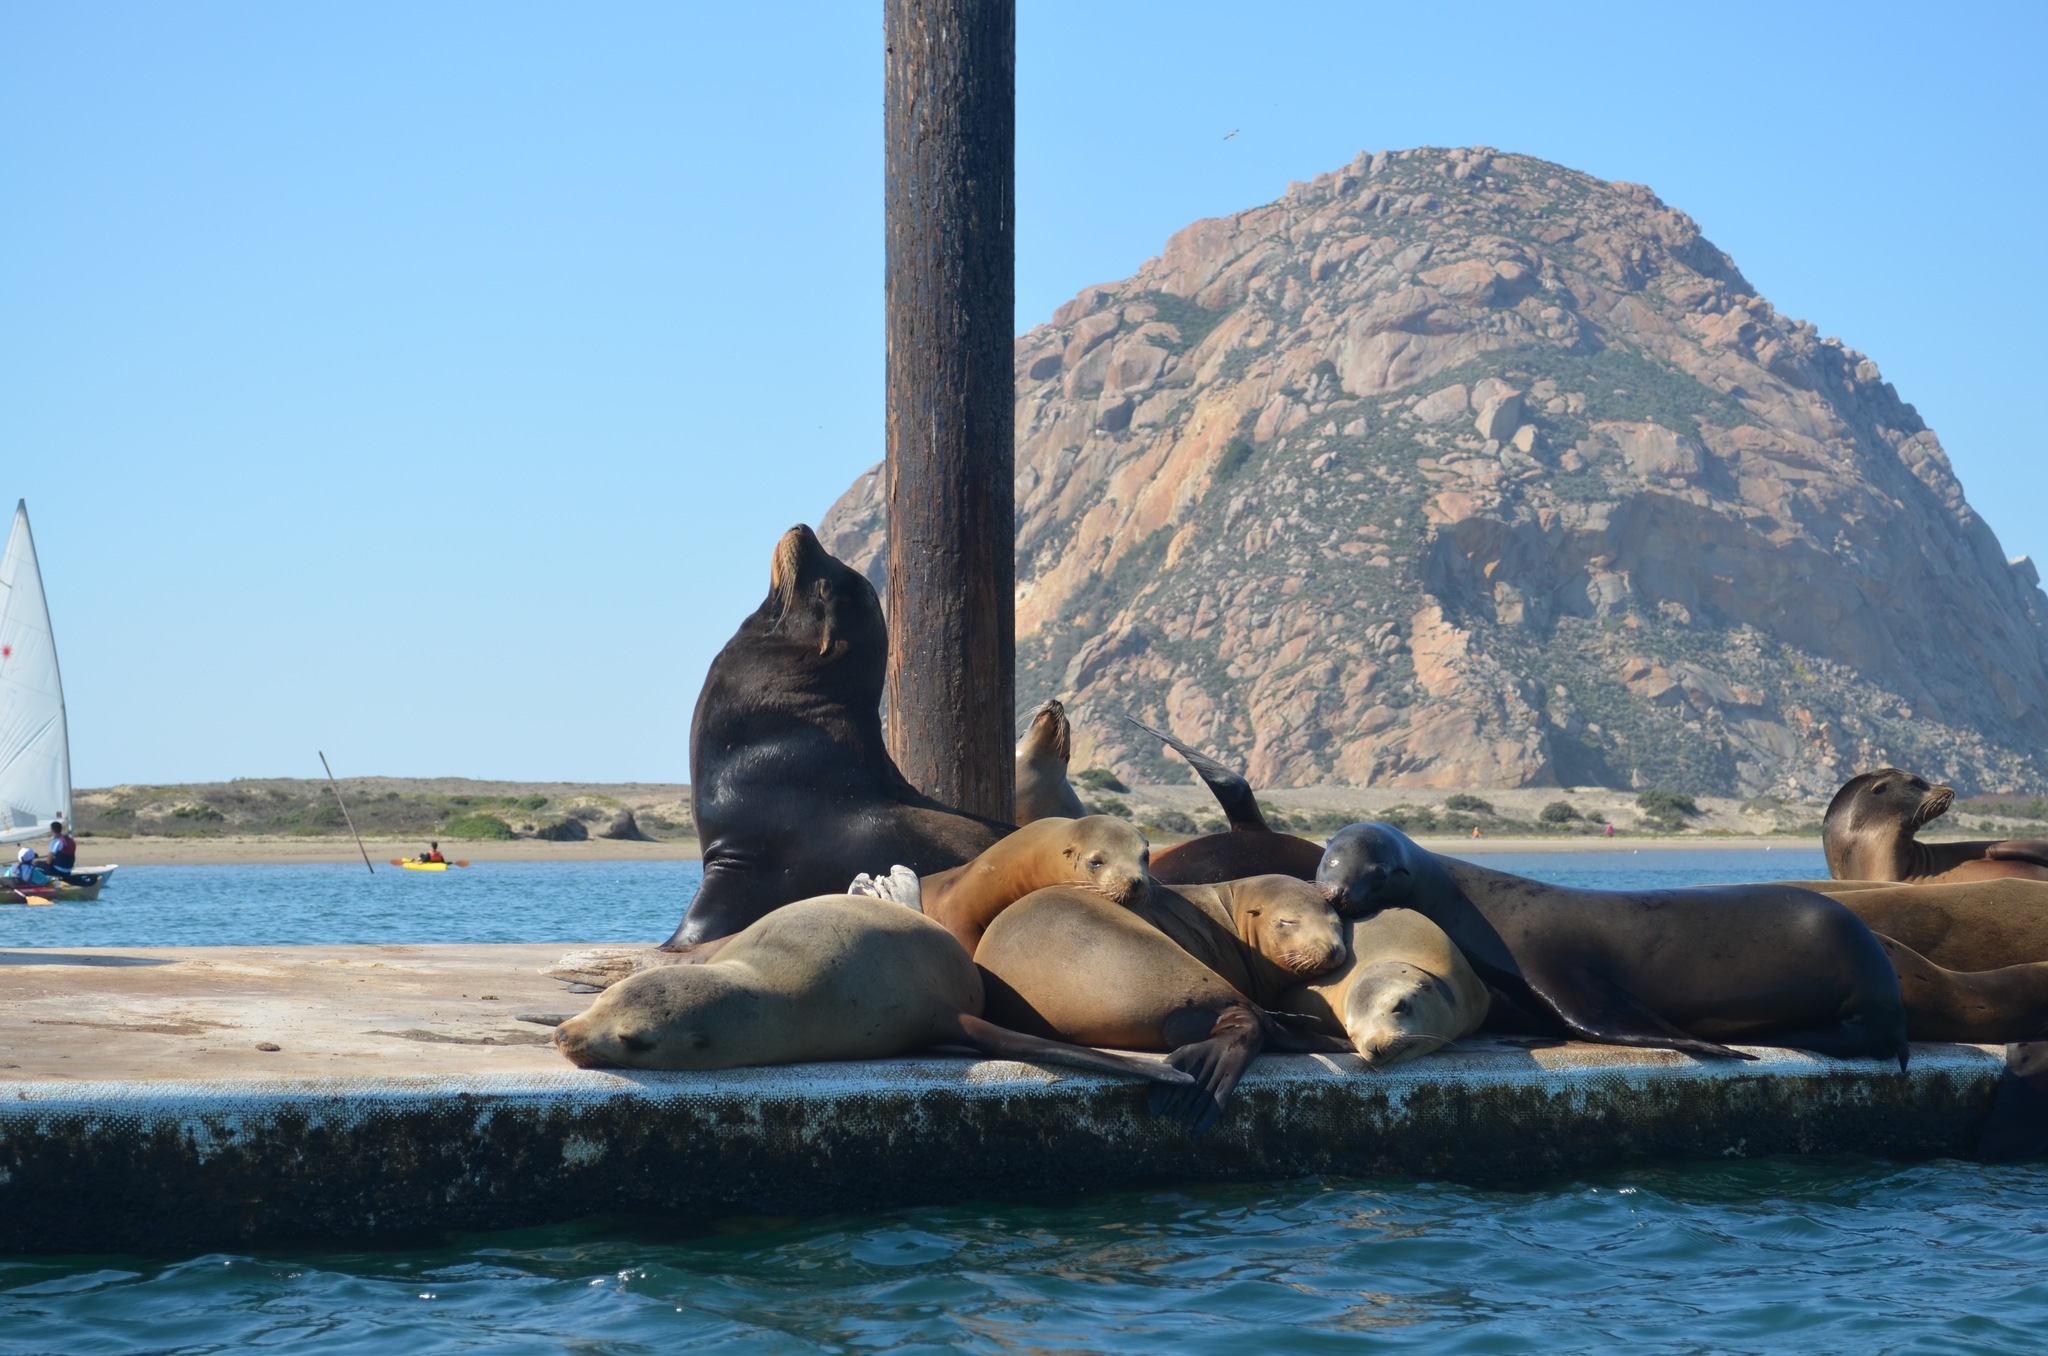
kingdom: Animalia
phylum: Chordata
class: Mammalia
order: Carnivora
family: Otariidae
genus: Zalophus
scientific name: Zalophus californianus
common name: California sea lion
